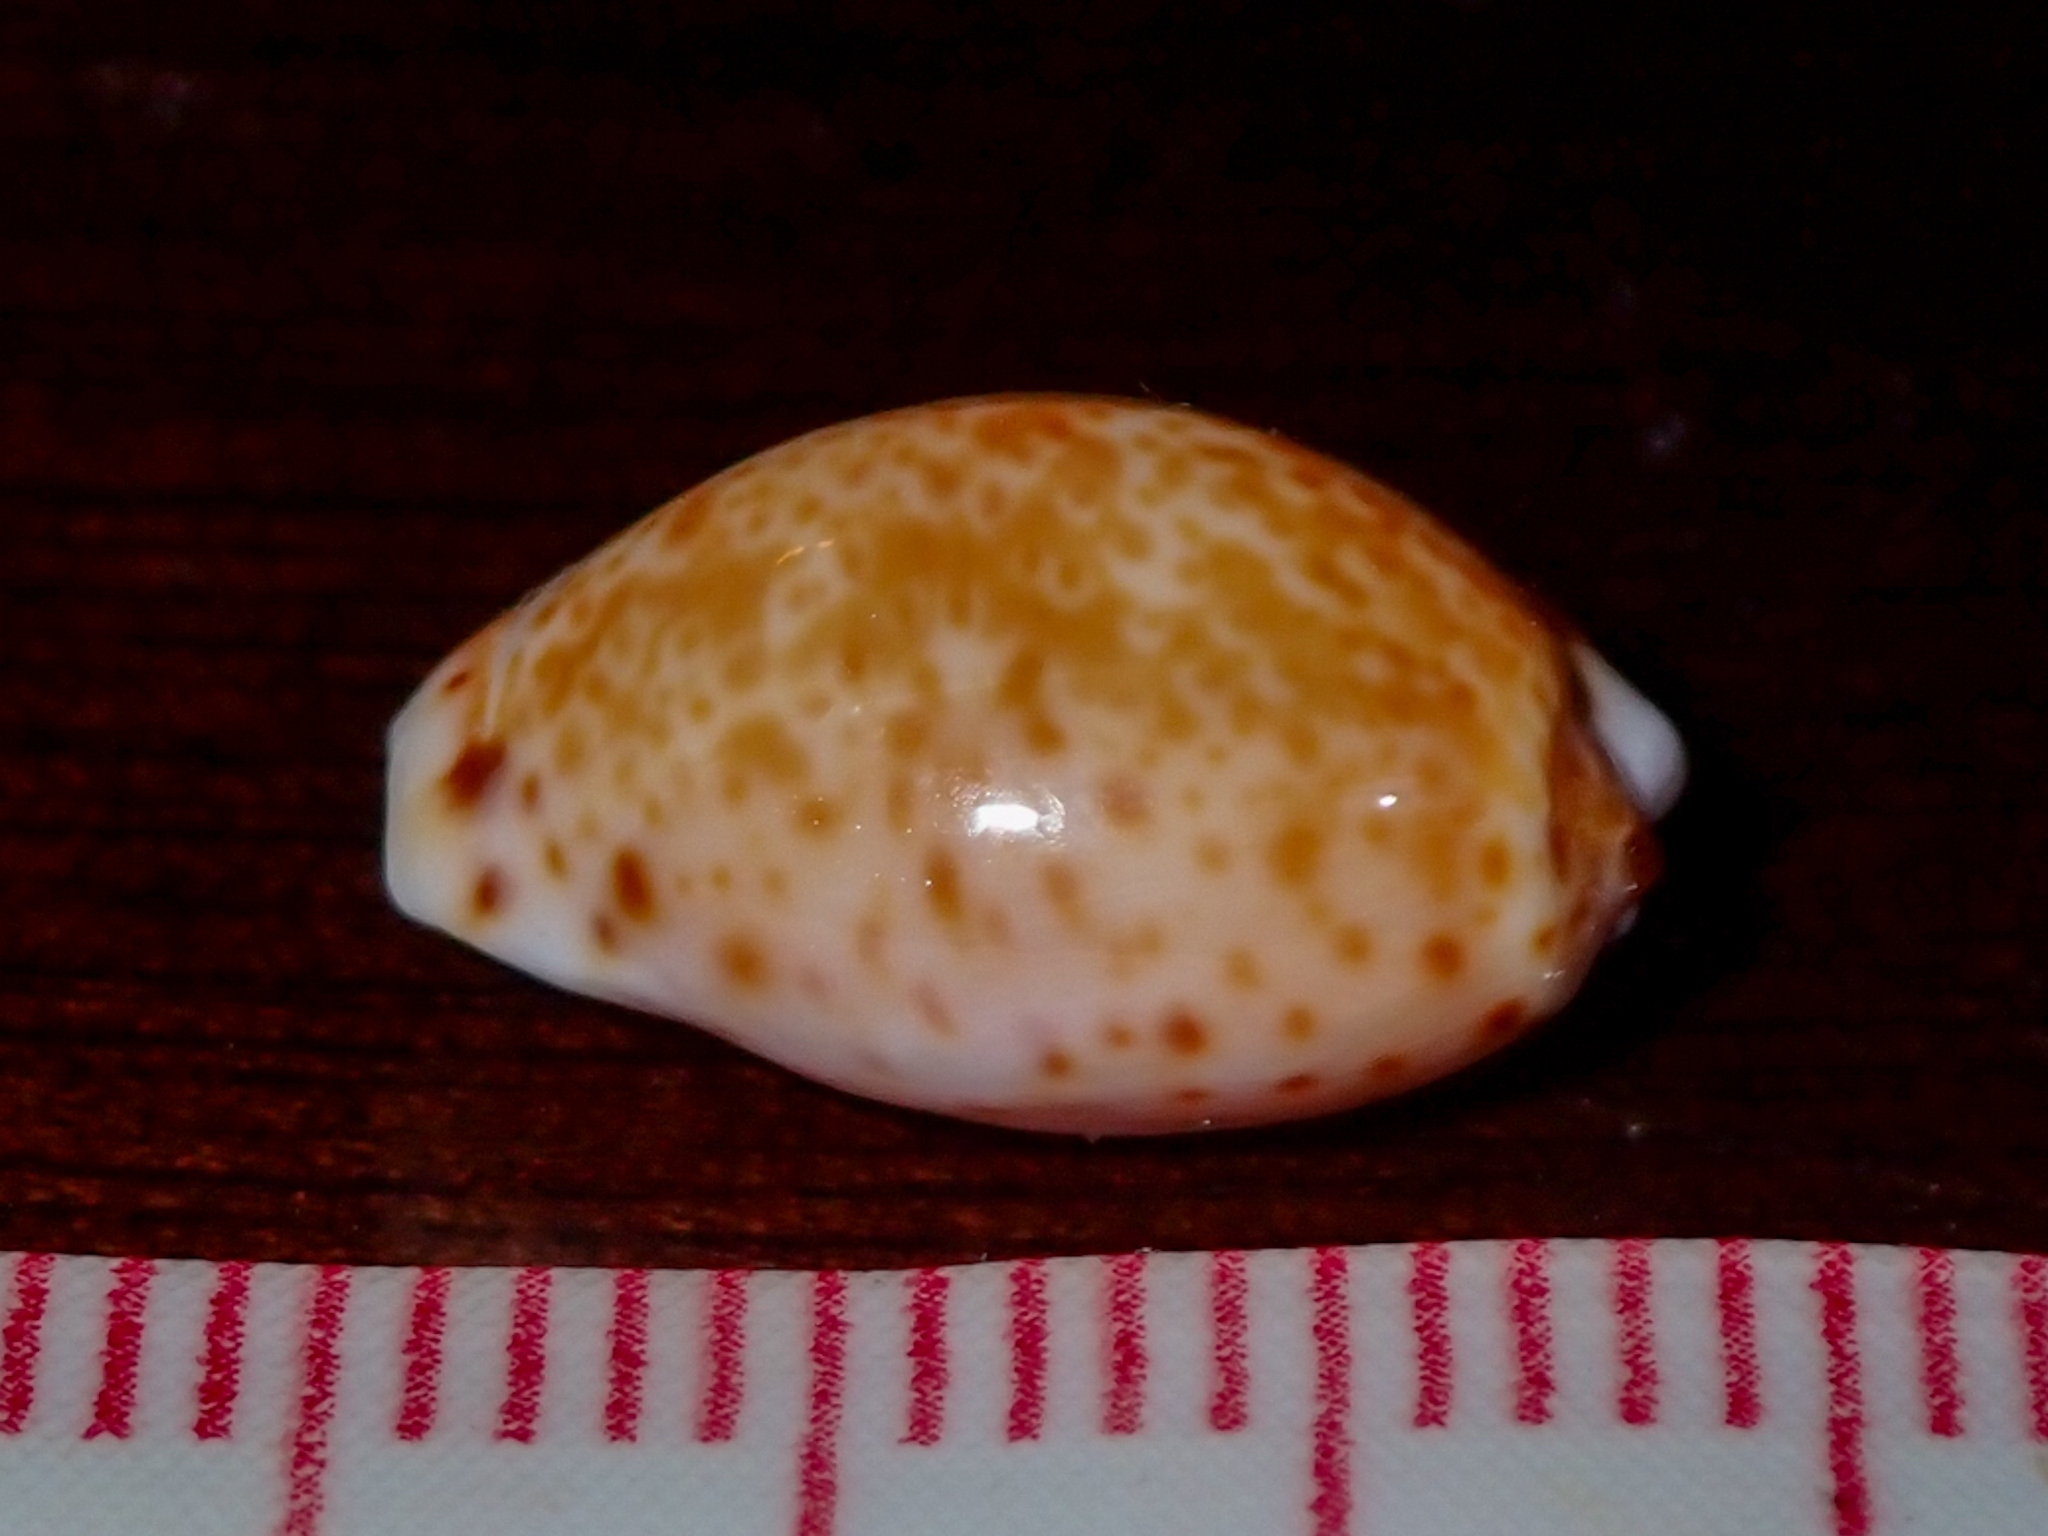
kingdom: Animalia
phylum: Mollusca
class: Gastropoda
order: Littorinimorpha
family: Cypraeidae
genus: Naria
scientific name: Naria acicularis
